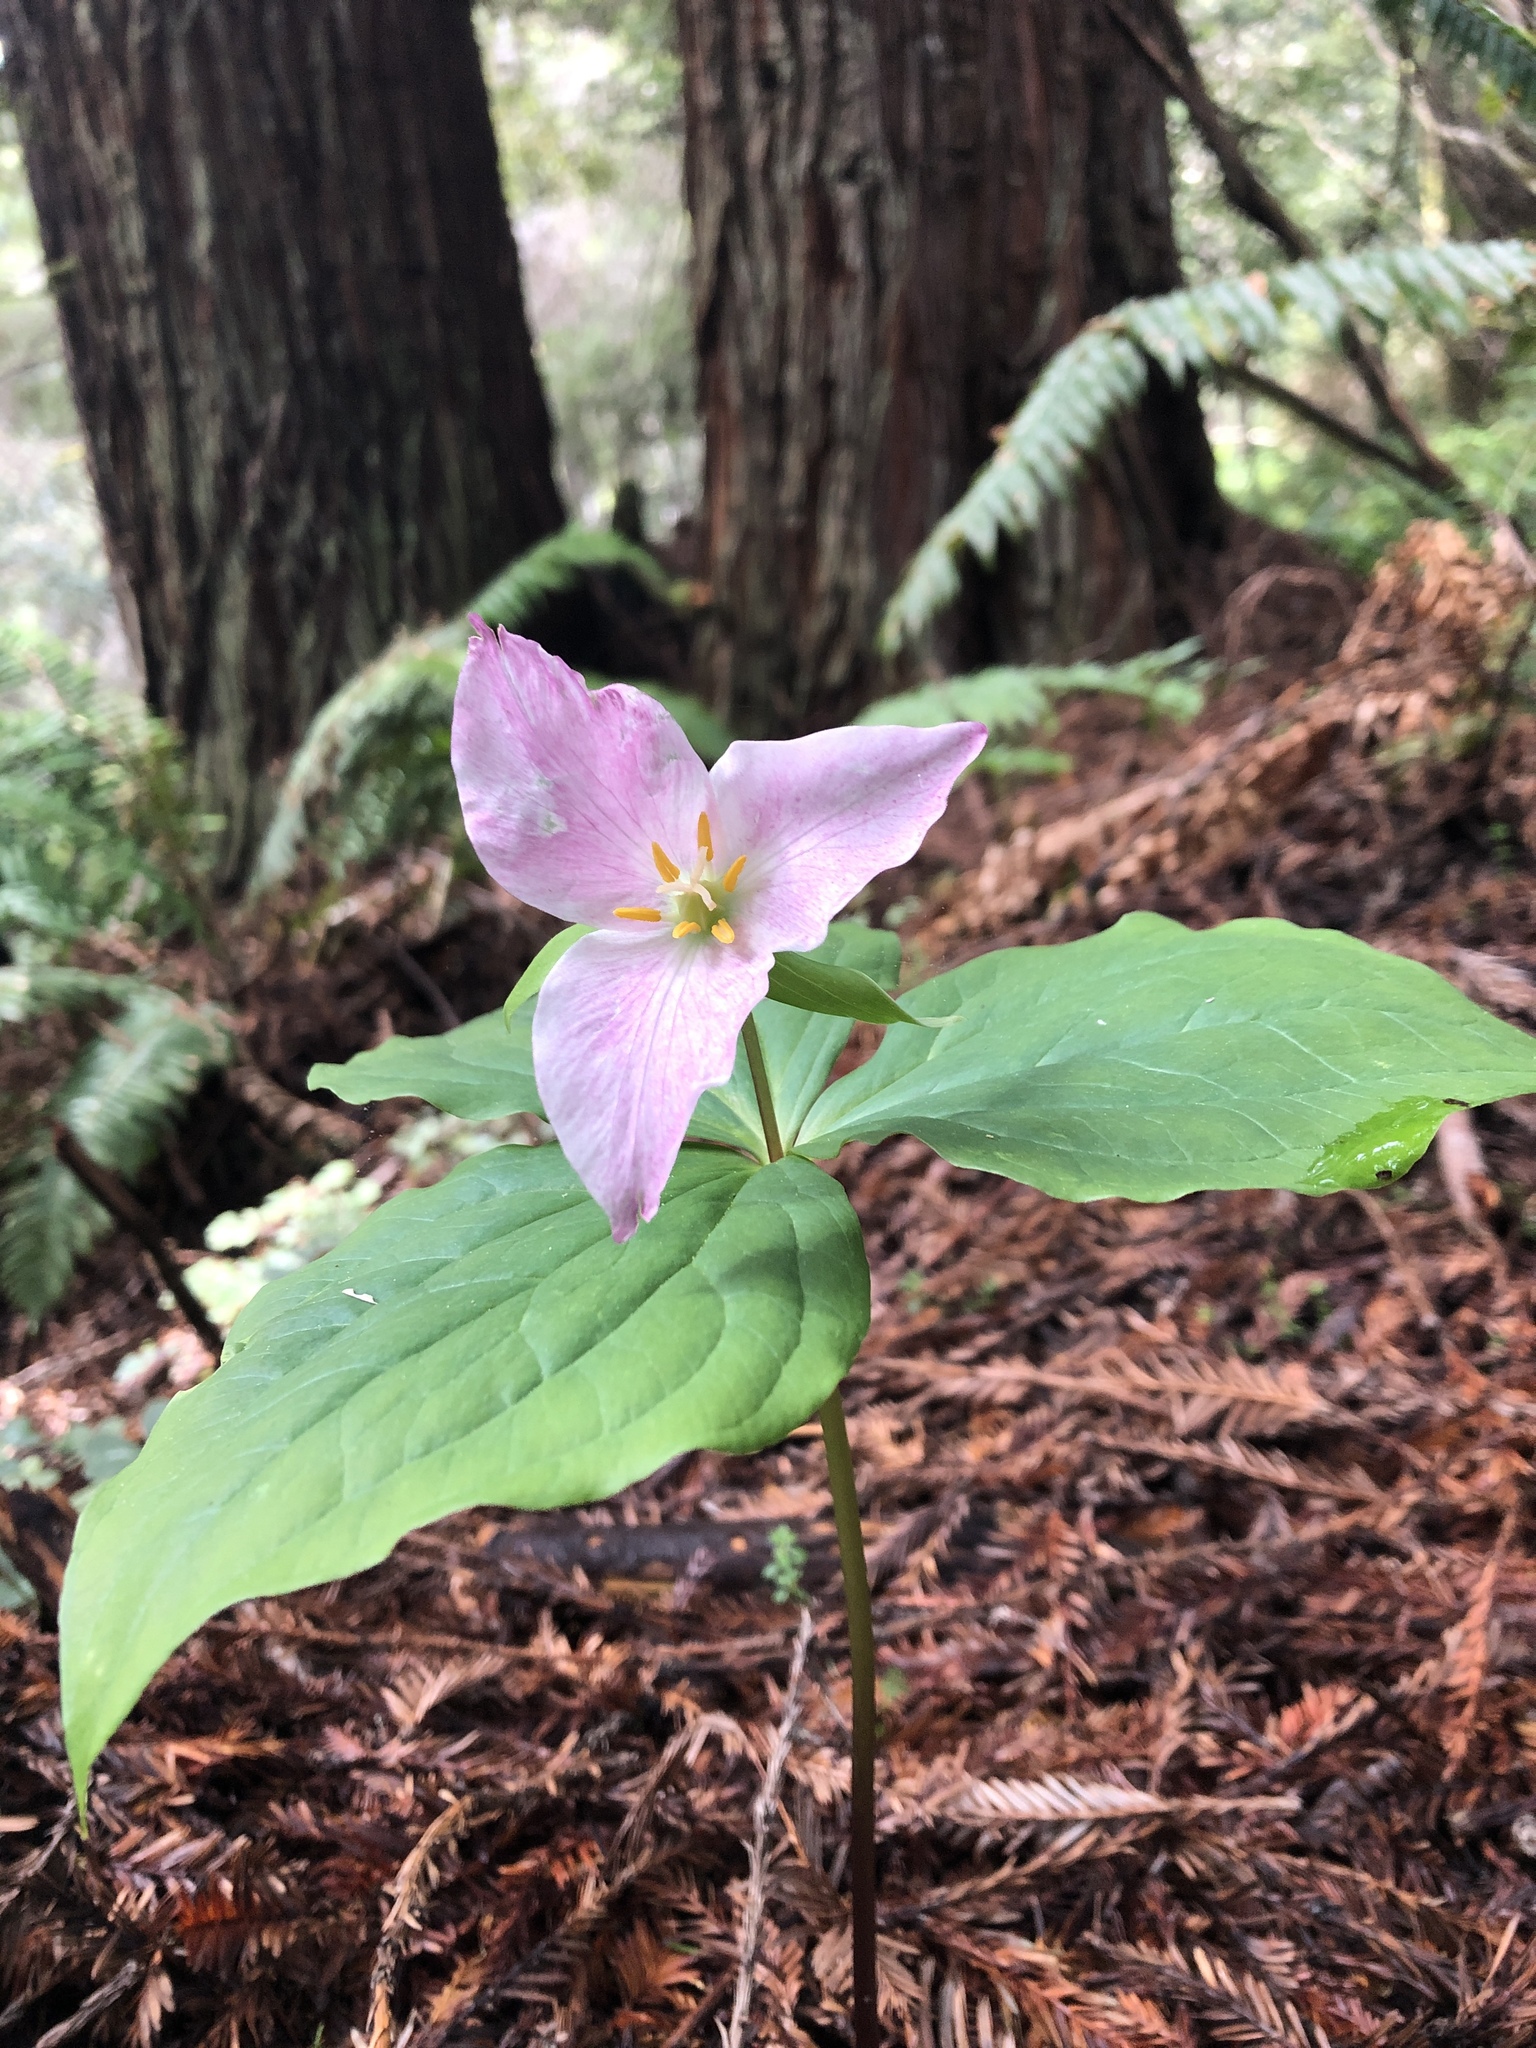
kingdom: Plantae
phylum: Tracheophyta
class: Liliopsida
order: Liliales
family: Melanthiaceae
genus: Trillium
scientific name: Trillium ovatum
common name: Pacific trillium
